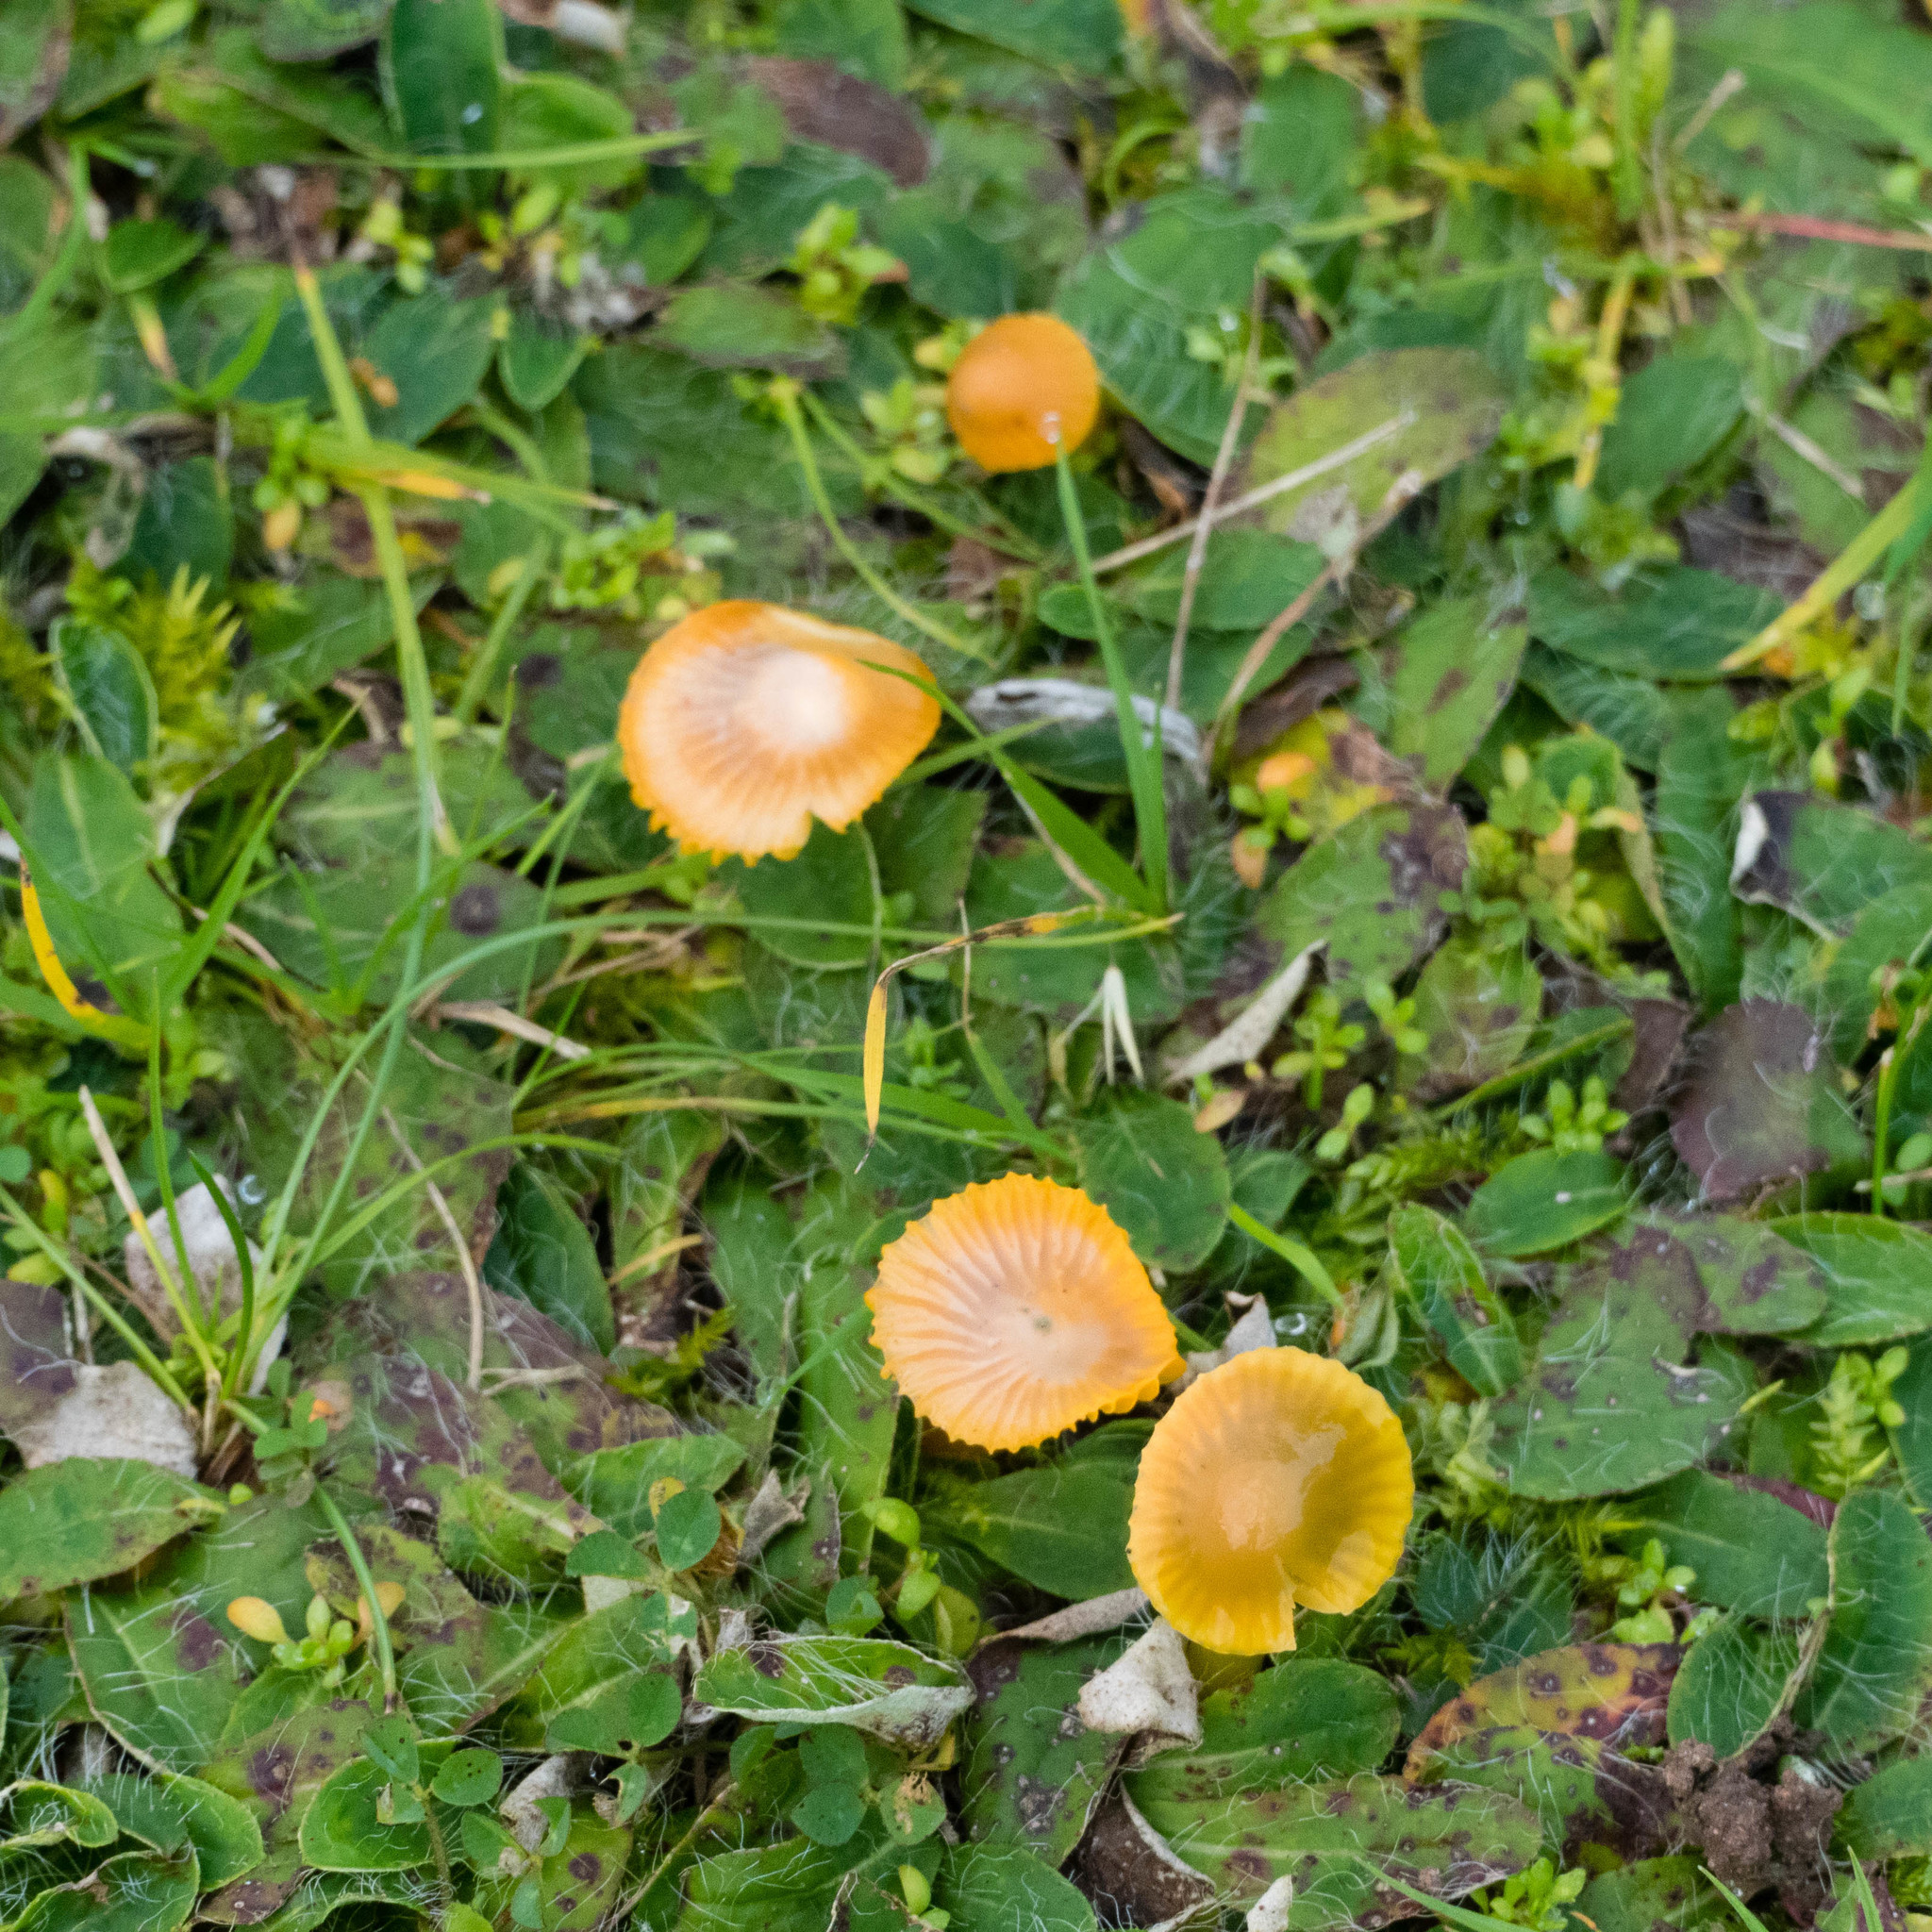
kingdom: Fungi
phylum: Basidiomycota
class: Agaricomycetes
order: Agaricales
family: Hygrophoraceae
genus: Gliophorus
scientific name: Gliophorus psittacinus
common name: Parrot wax-cap
